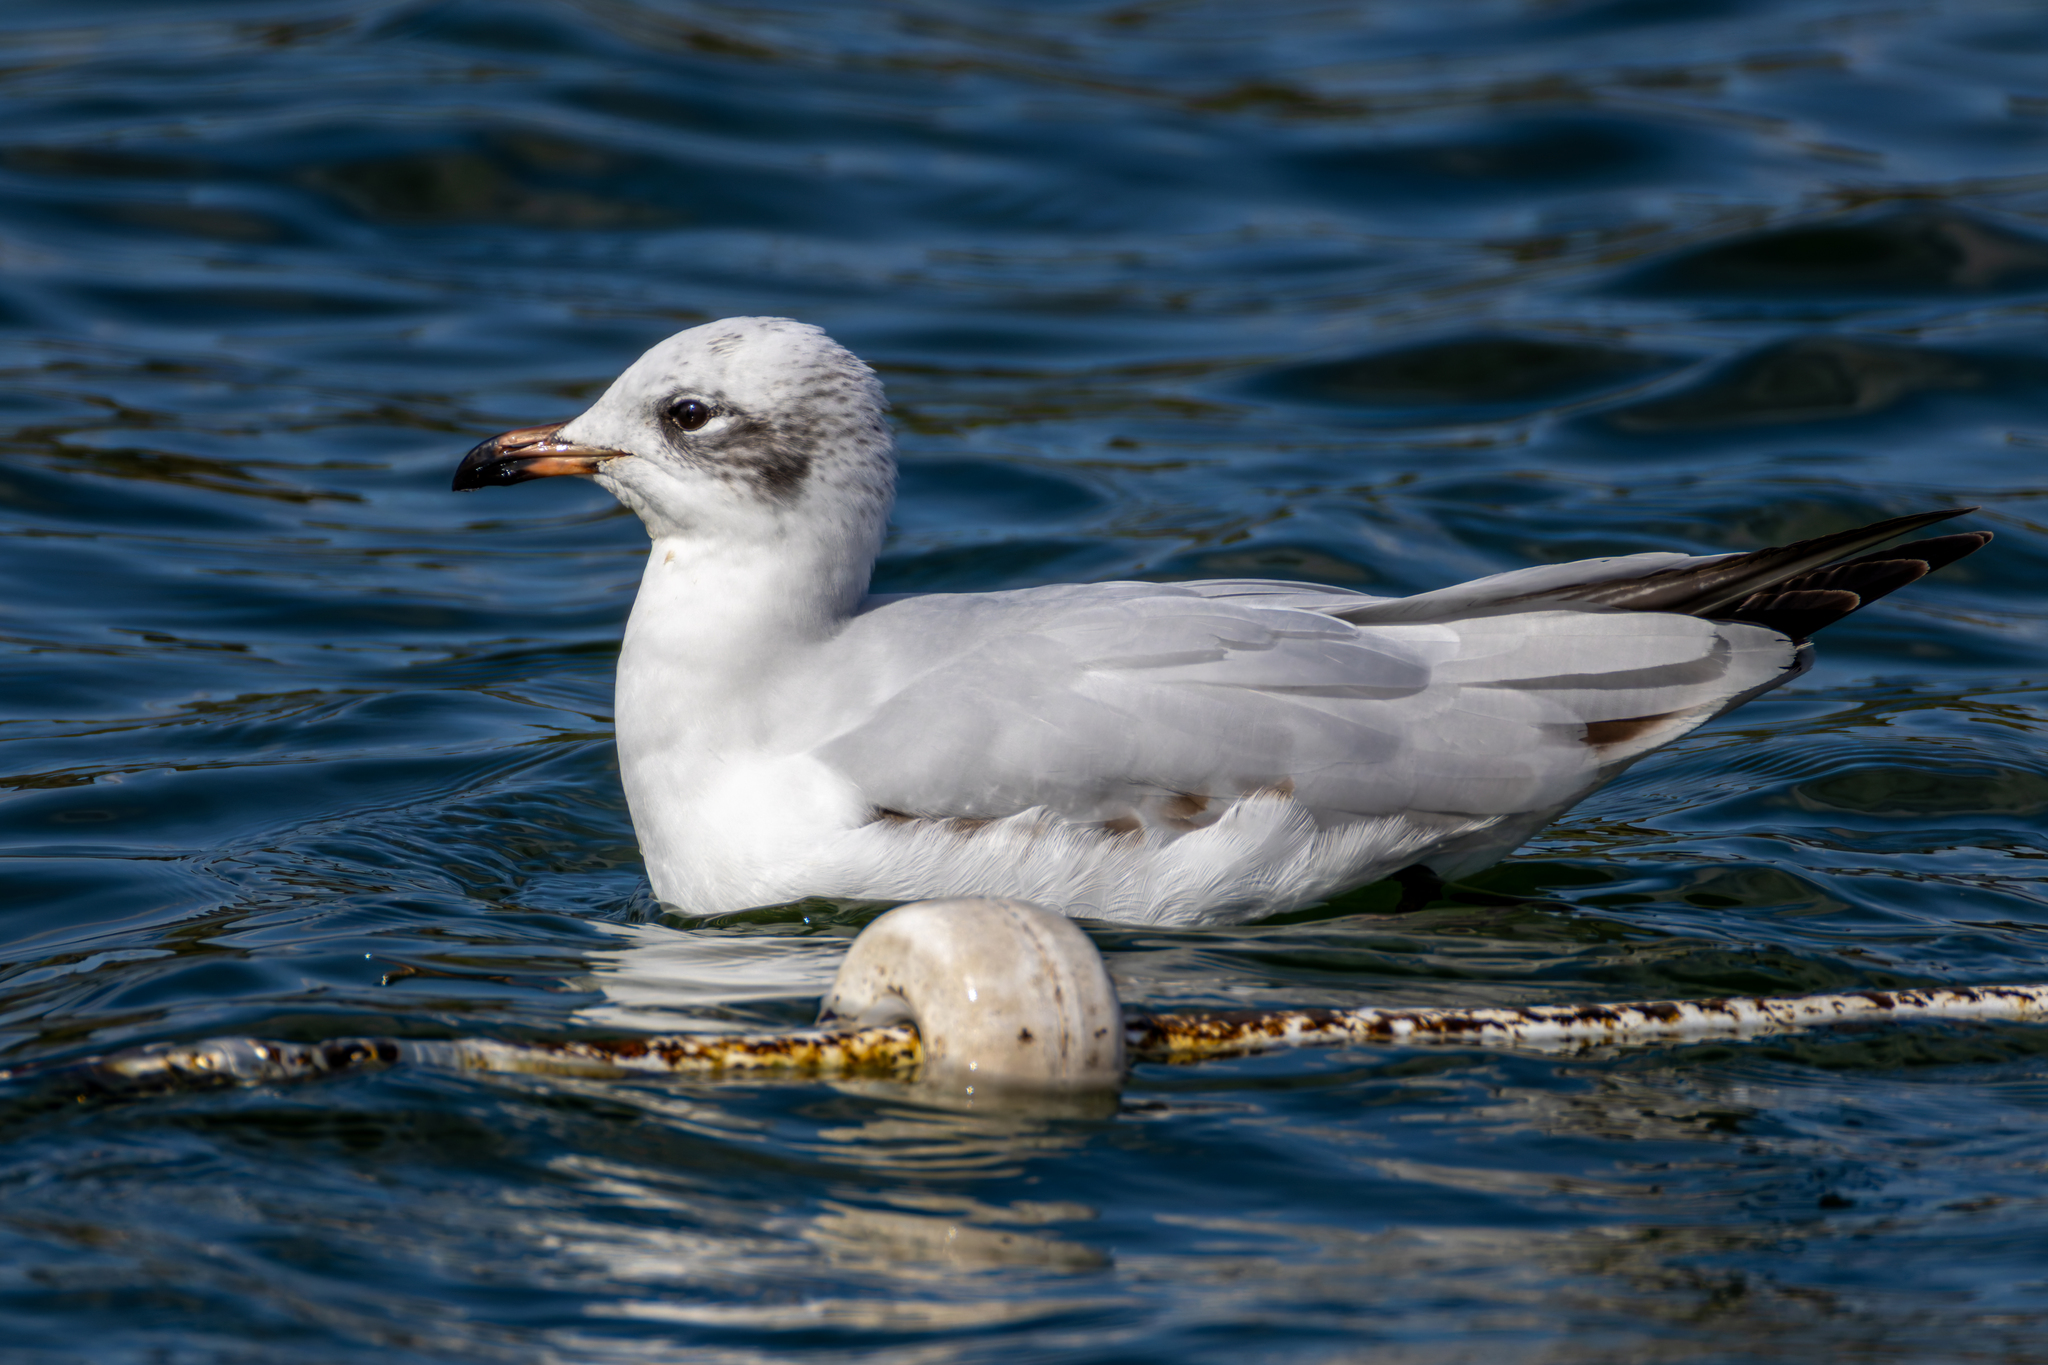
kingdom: Animalia
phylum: Chordata
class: Aves
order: Charadriiformes
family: Laridae
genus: Ichthyaetus
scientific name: Ichthyaetus melanocephalus
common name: Mediterranean gull
